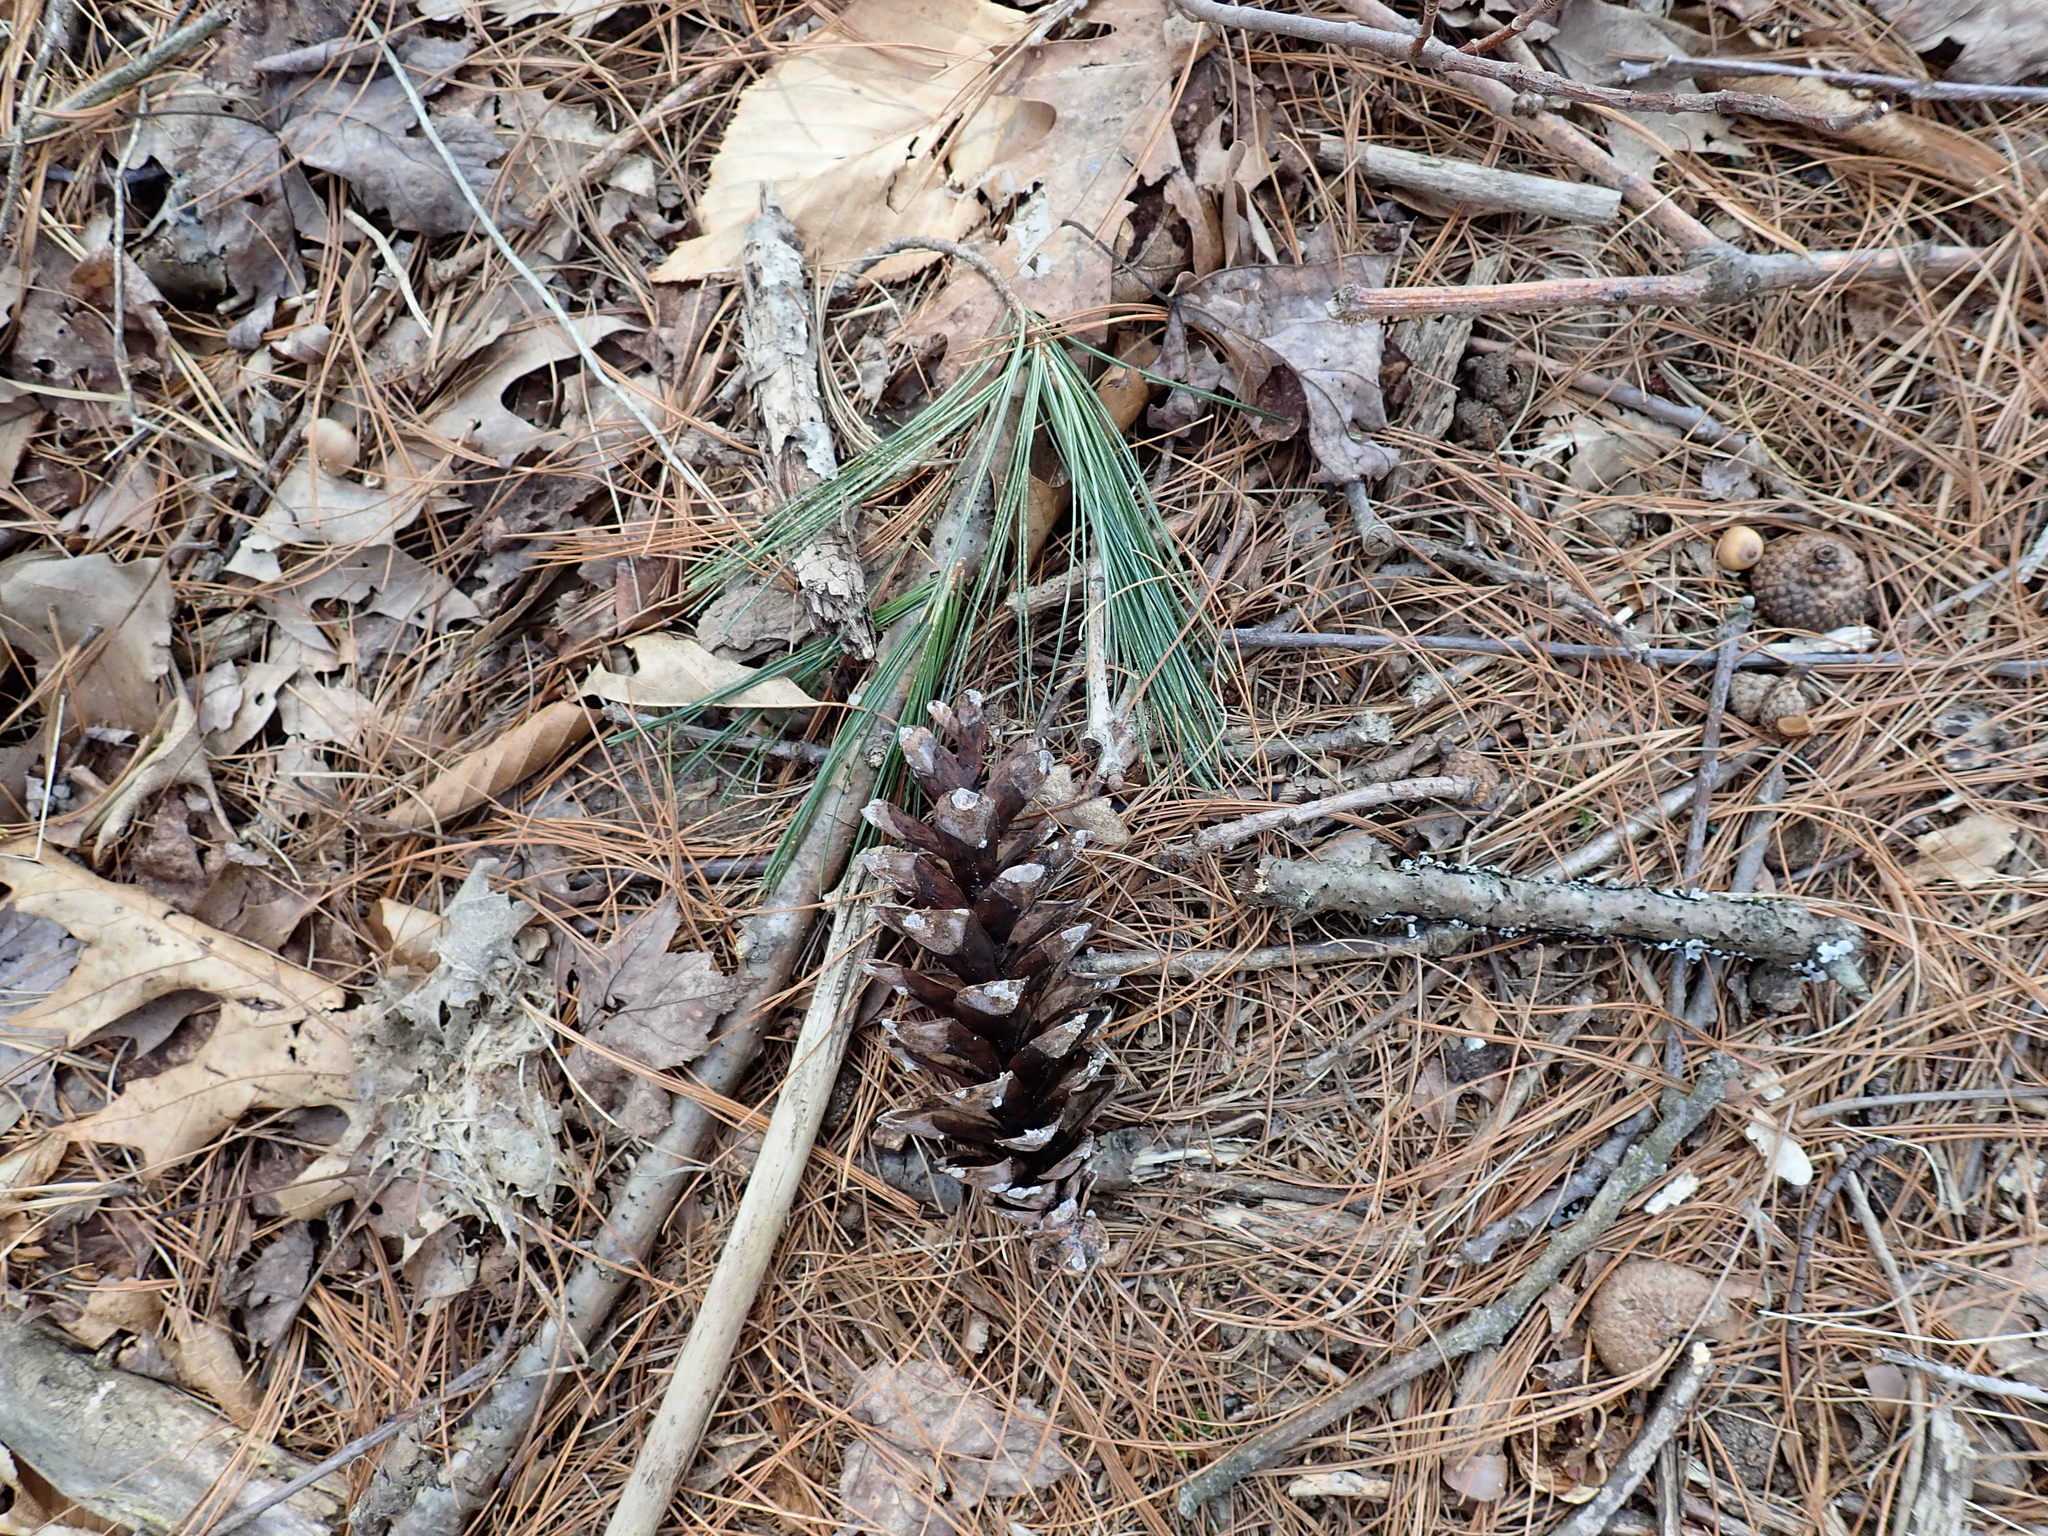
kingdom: Plantae
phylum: Tracheophyta
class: Pinopsida
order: Pinales
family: Pinaceae
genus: Pinus
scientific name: Pinus strobus
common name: Weymouth pine
